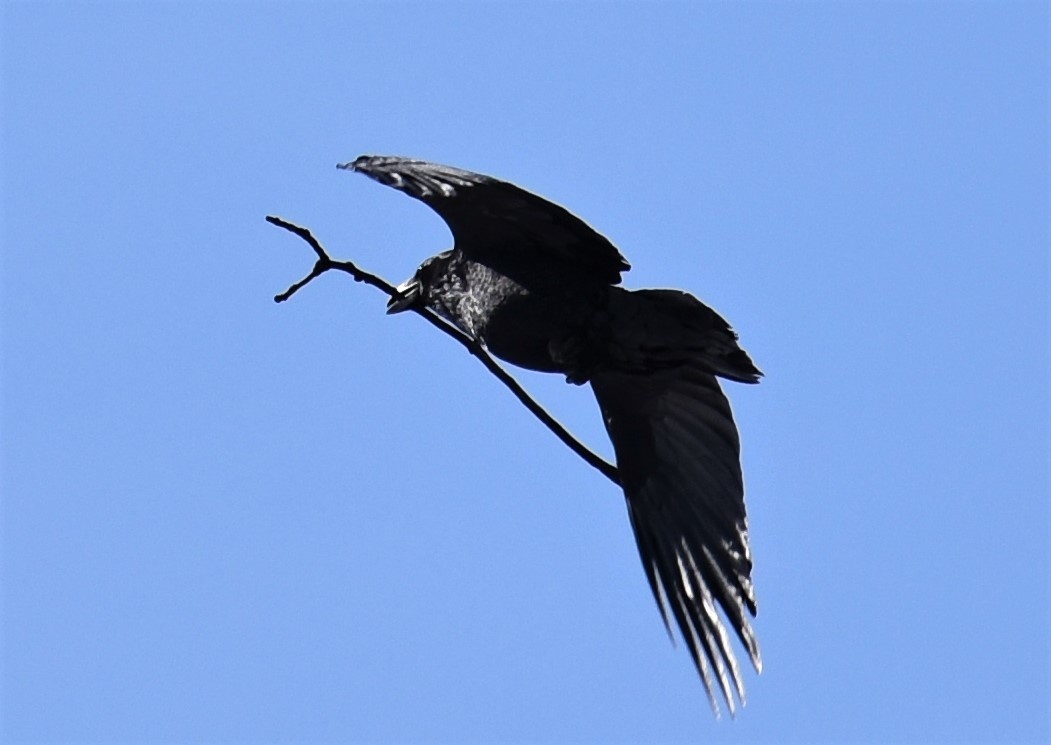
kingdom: Animalia
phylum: Chordata
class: Aves
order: Passeriformes
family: Corvidae
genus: Corvus
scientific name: Corvus corax
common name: Common raven
